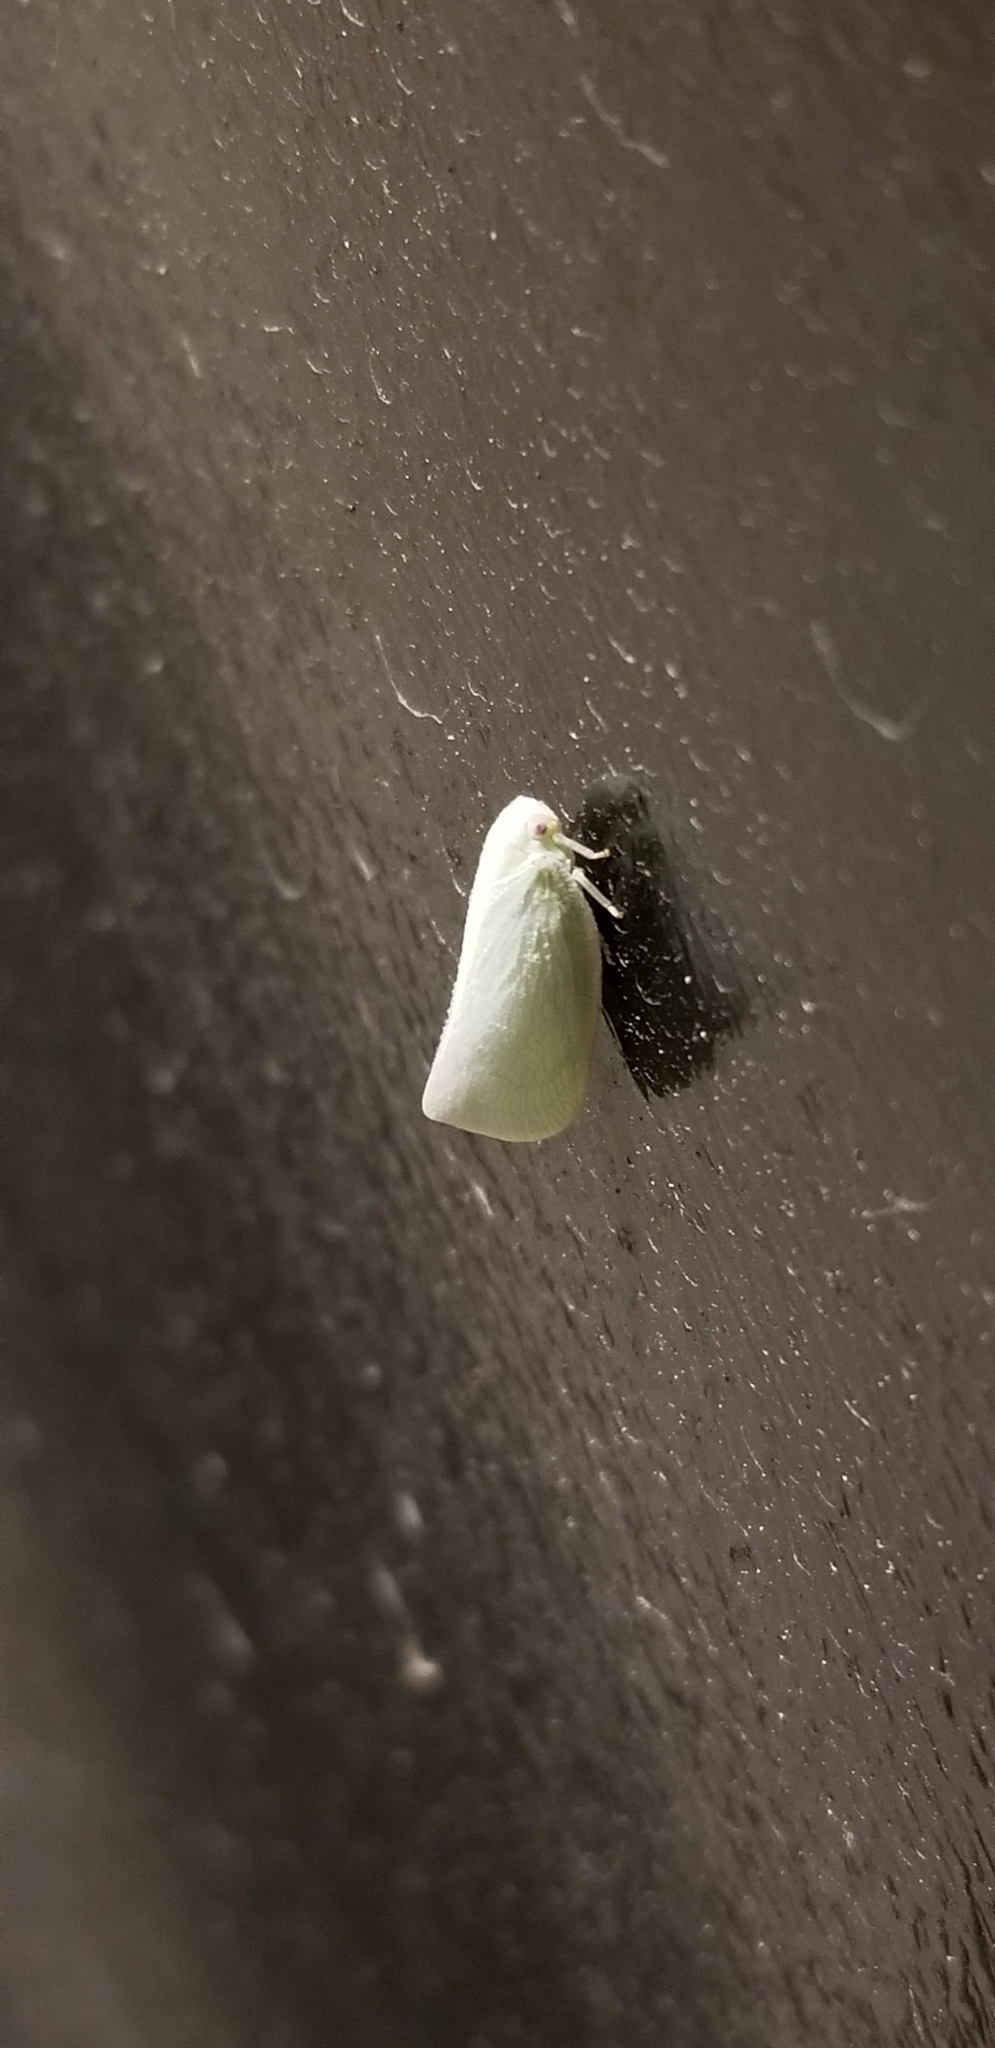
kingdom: Animalia
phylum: Arthropoda
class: Insecta
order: Hemiptera
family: Flatidae
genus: Flatormenis
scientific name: Flatormenis proxima
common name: Northern flatid planthopper
